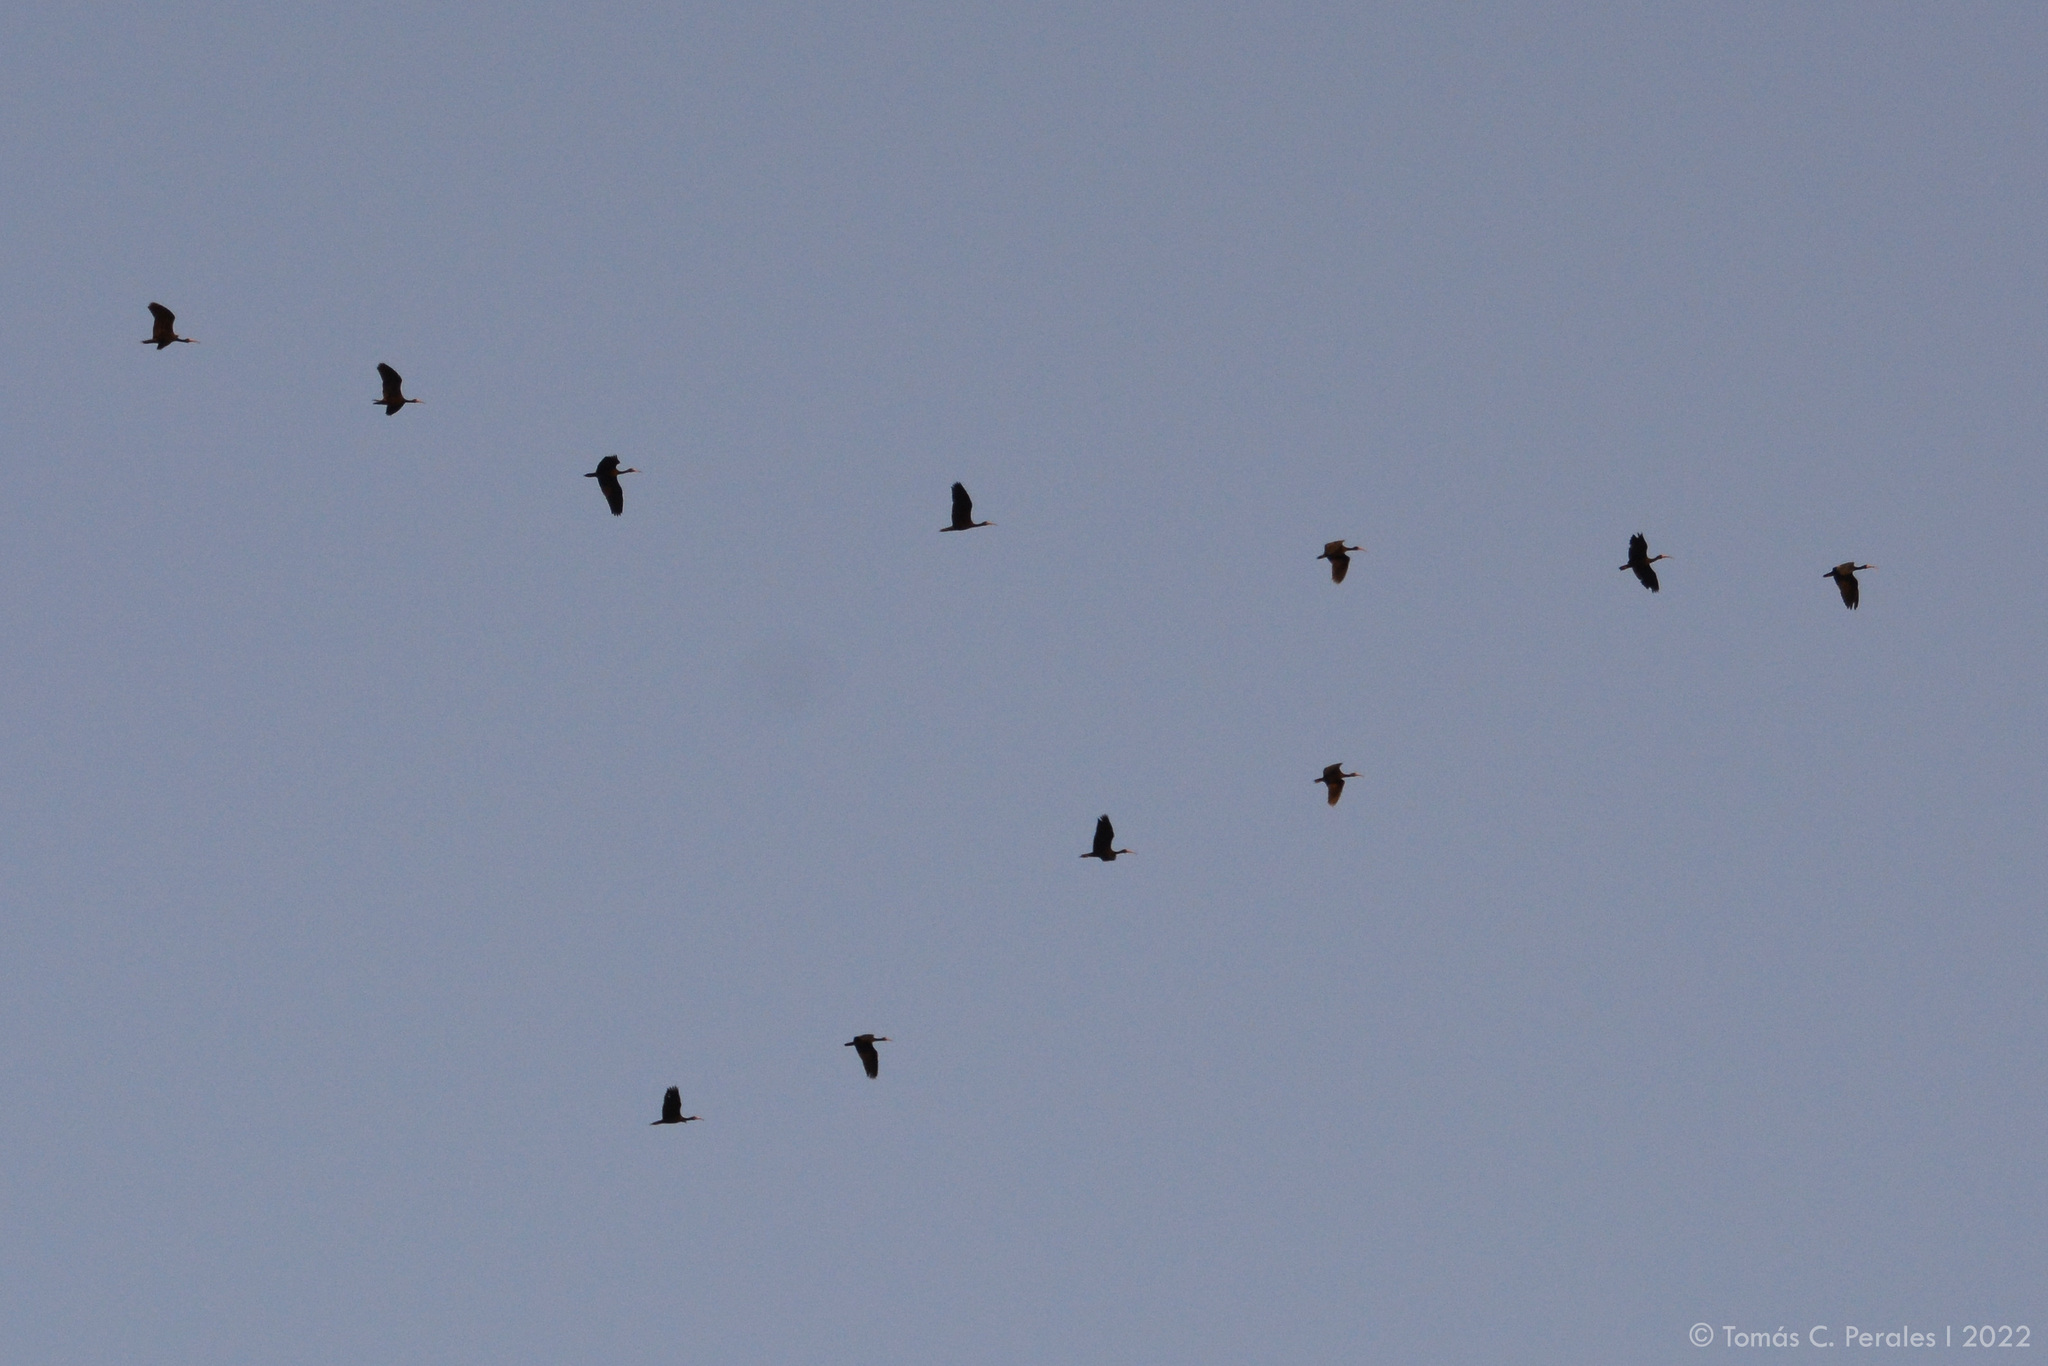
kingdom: Animalia
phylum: Chordata
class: Aves
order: Pelecaniformes
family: Threskiornithidae
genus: Phimosus
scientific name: Phimosus infuscatus
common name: Bare-faced ibis
